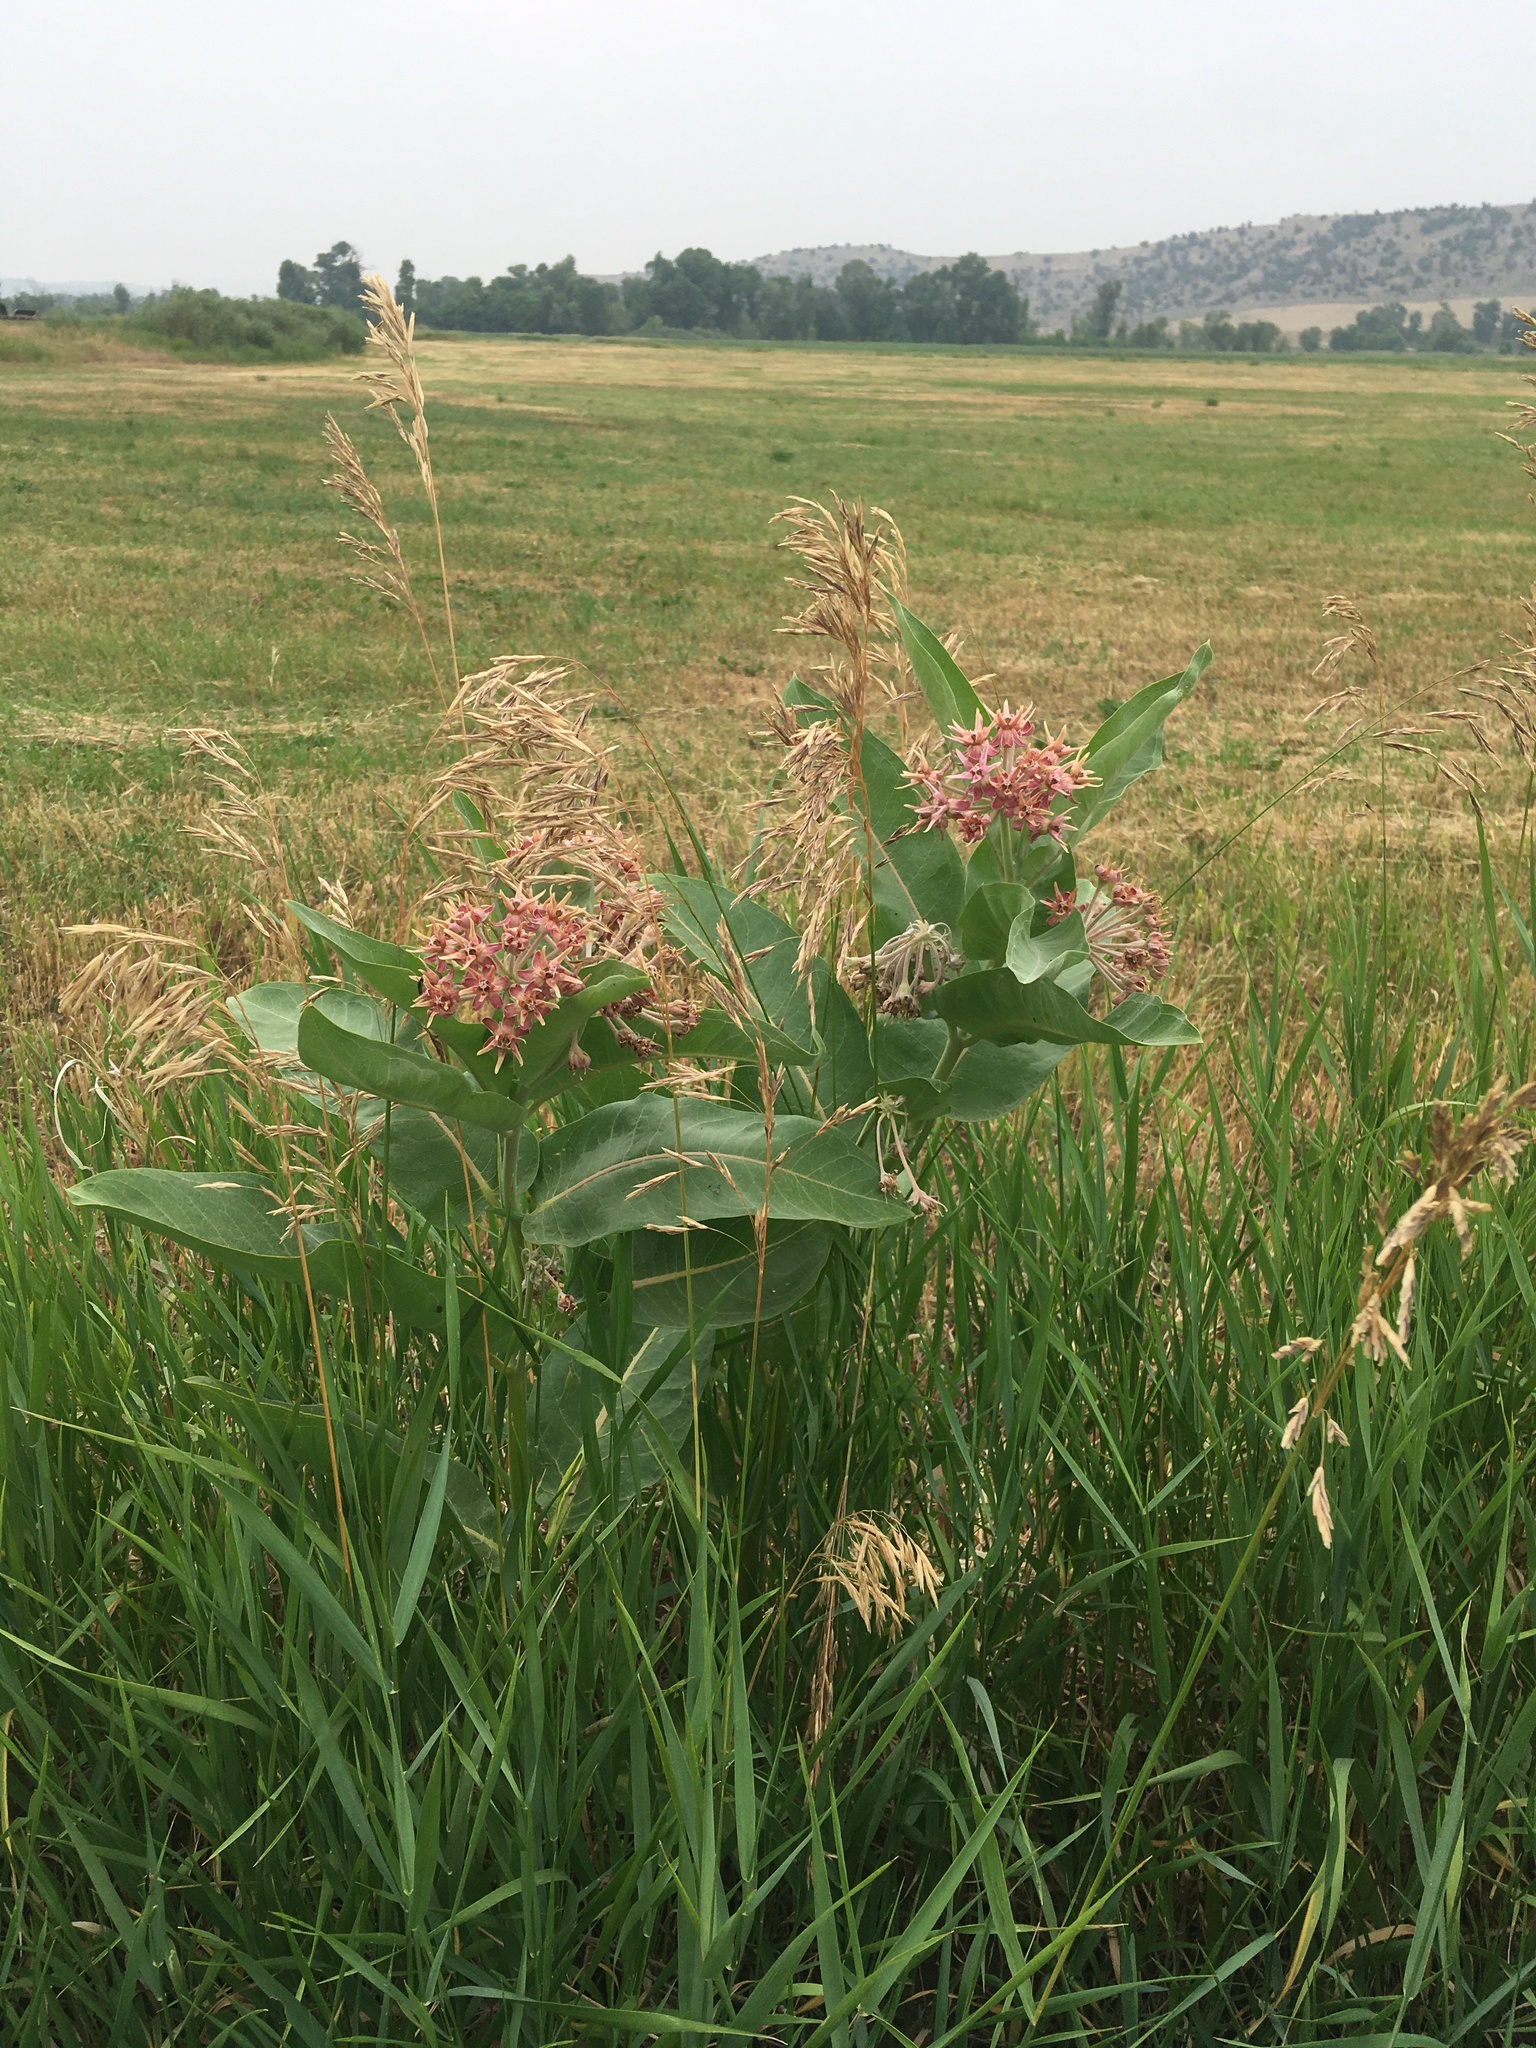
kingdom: Plantae
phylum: Tracheophyta
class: Magnoliopsida
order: Gentianales
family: Apocynaceae
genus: Asclepias
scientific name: Asclepias speciosa
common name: Showy milkweed
